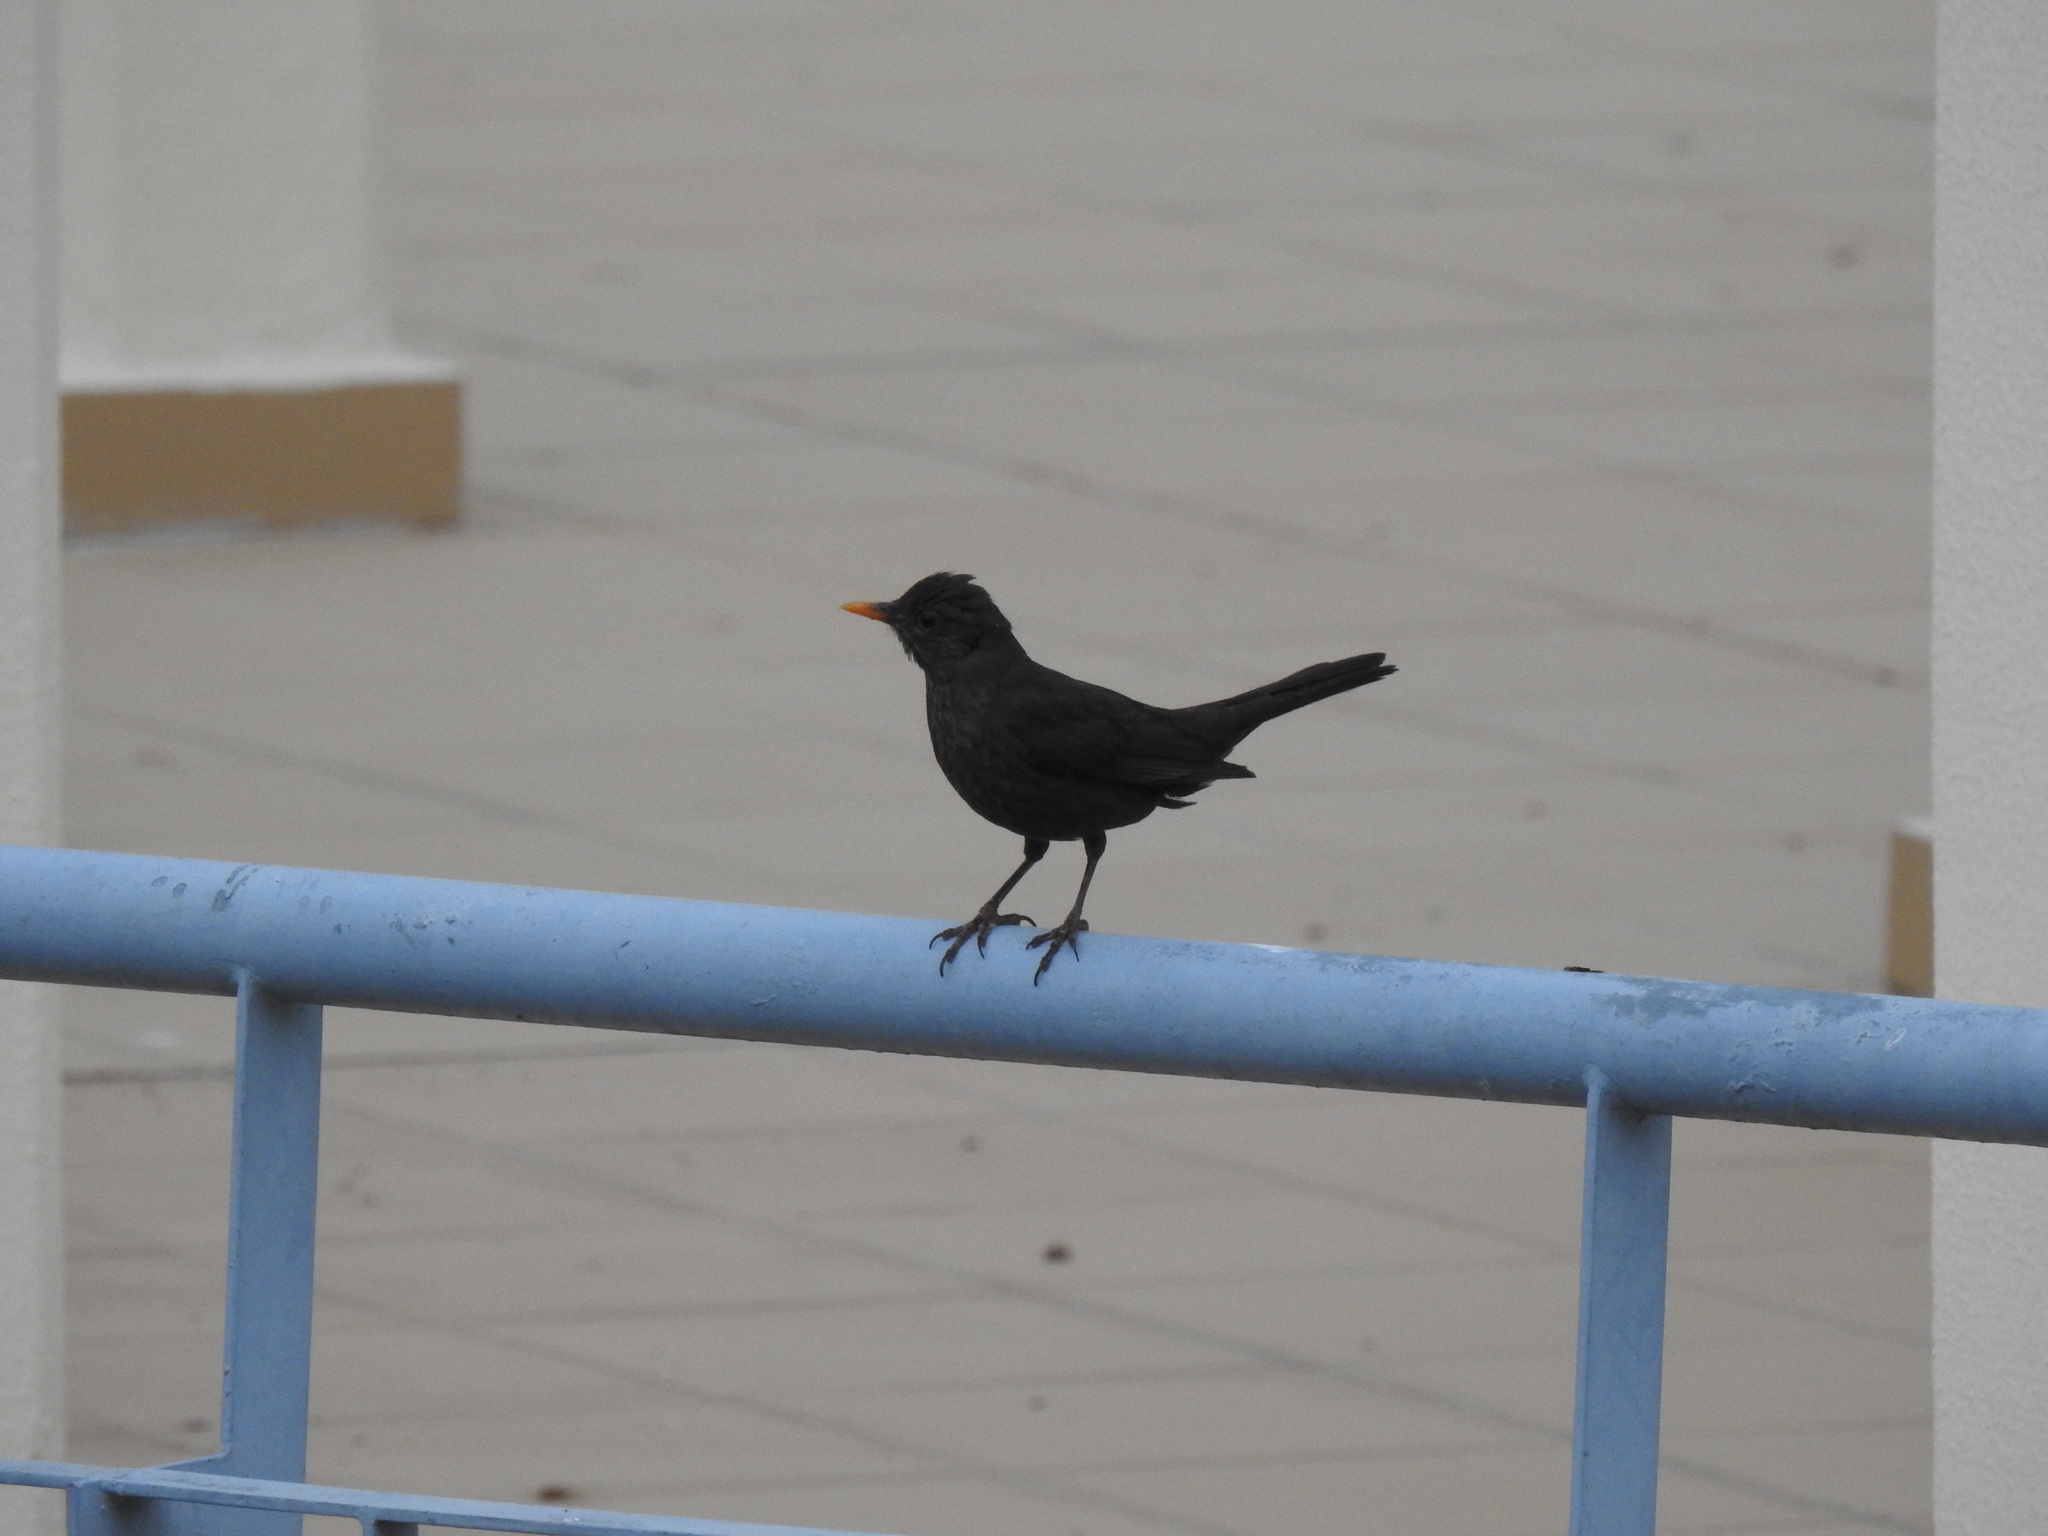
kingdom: Animalia
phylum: Chordata
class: Aves
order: Passeriformes
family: Turdidae
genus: Turdus
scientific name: Turdus merula
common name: Common blackbird
